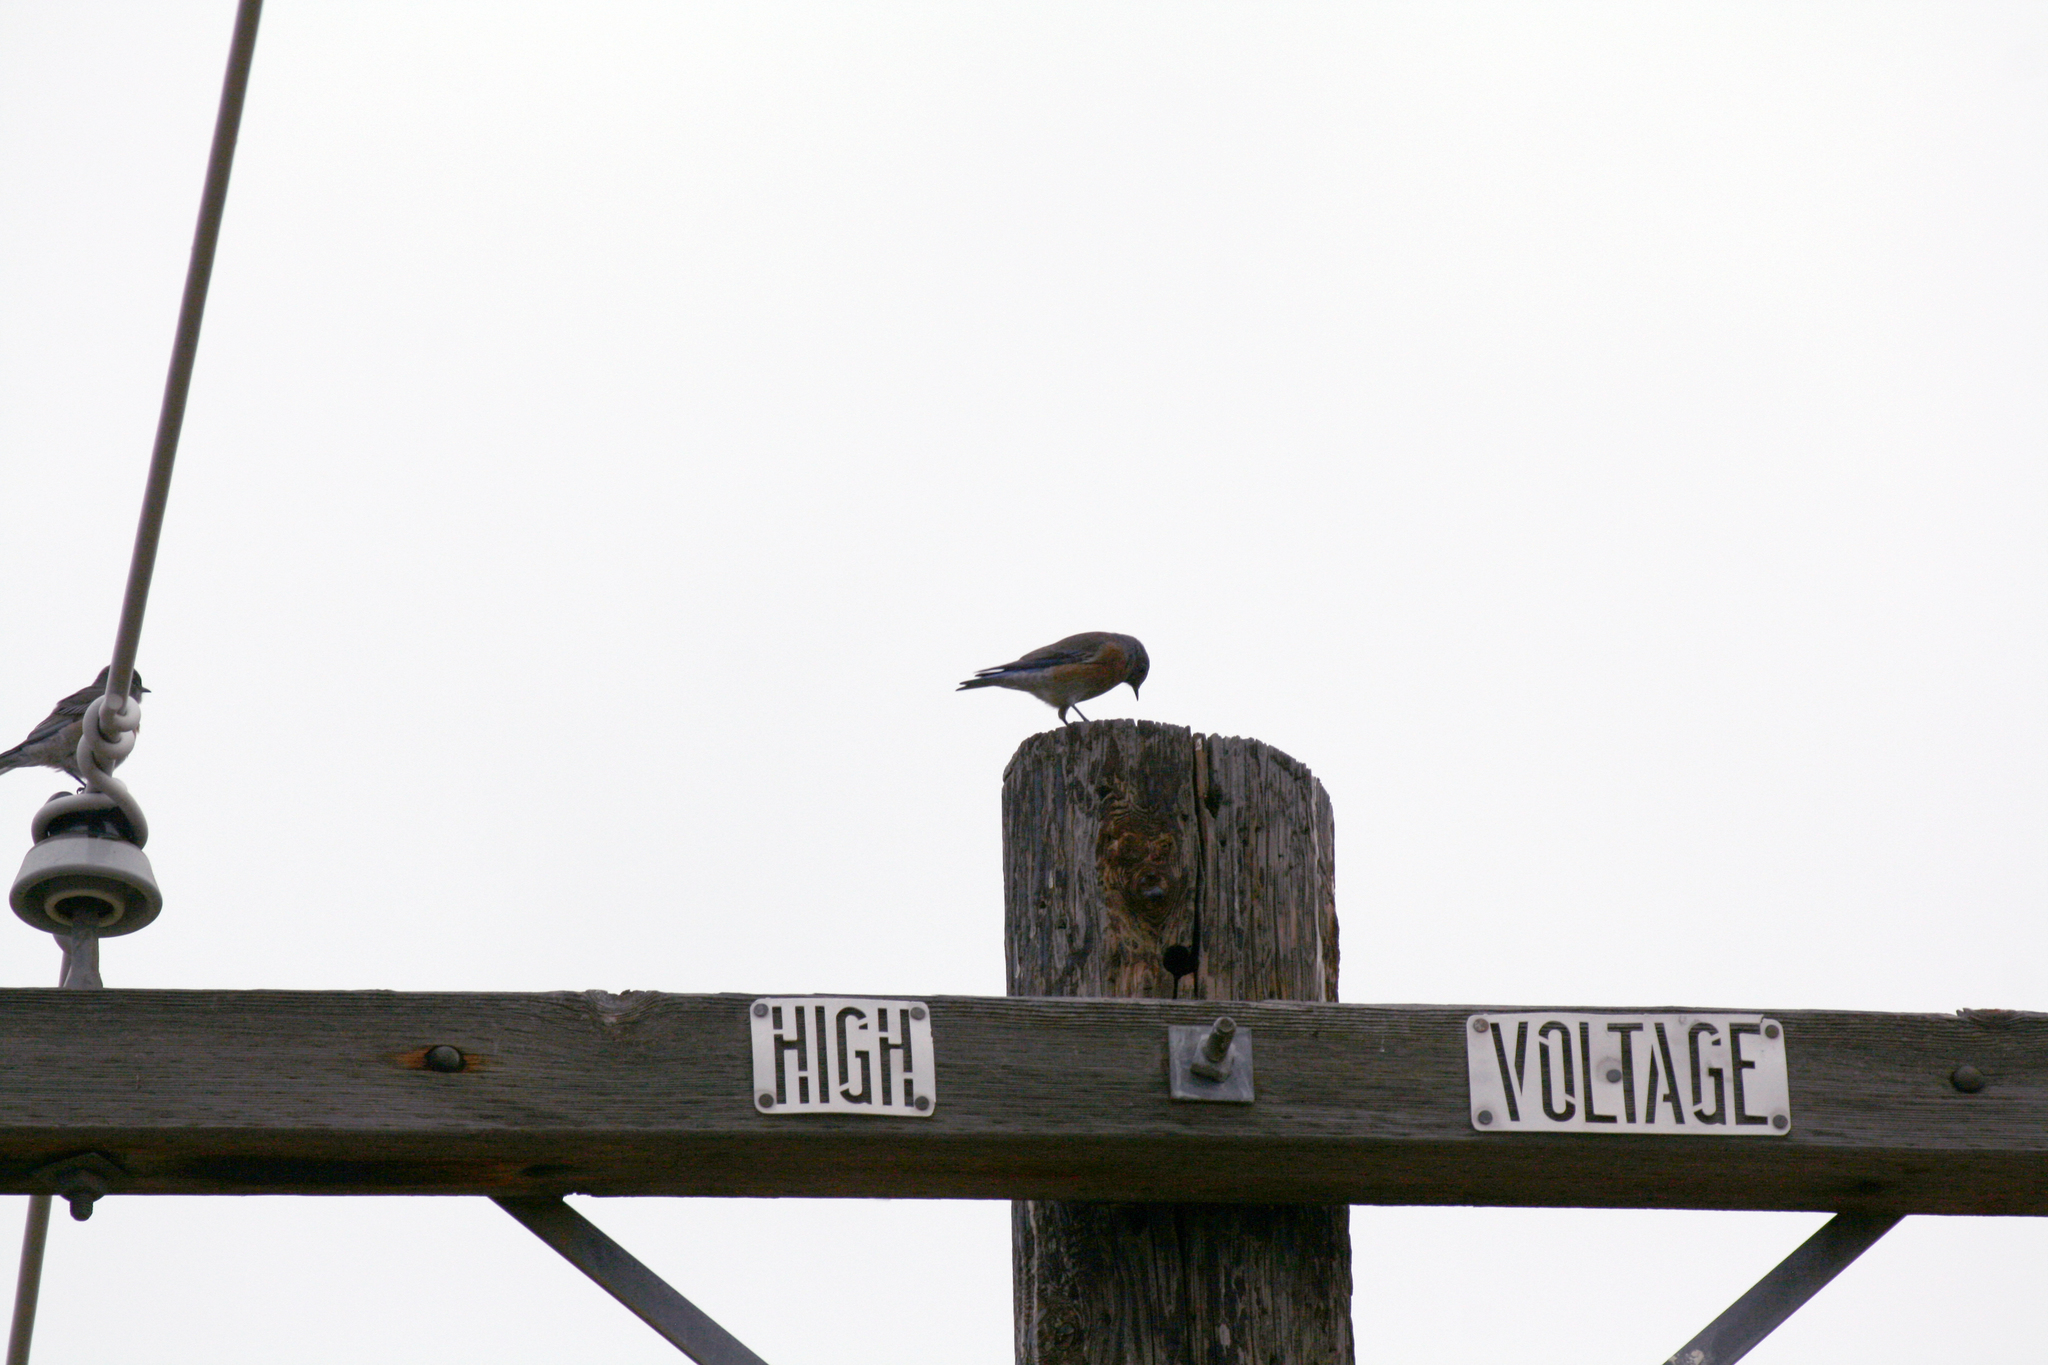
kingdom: Animalia
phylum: Chordata
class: Aves
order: Passeriformes
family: Turdidae
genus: Sialia
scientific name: Sialia mexicana
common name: Western bluebird
